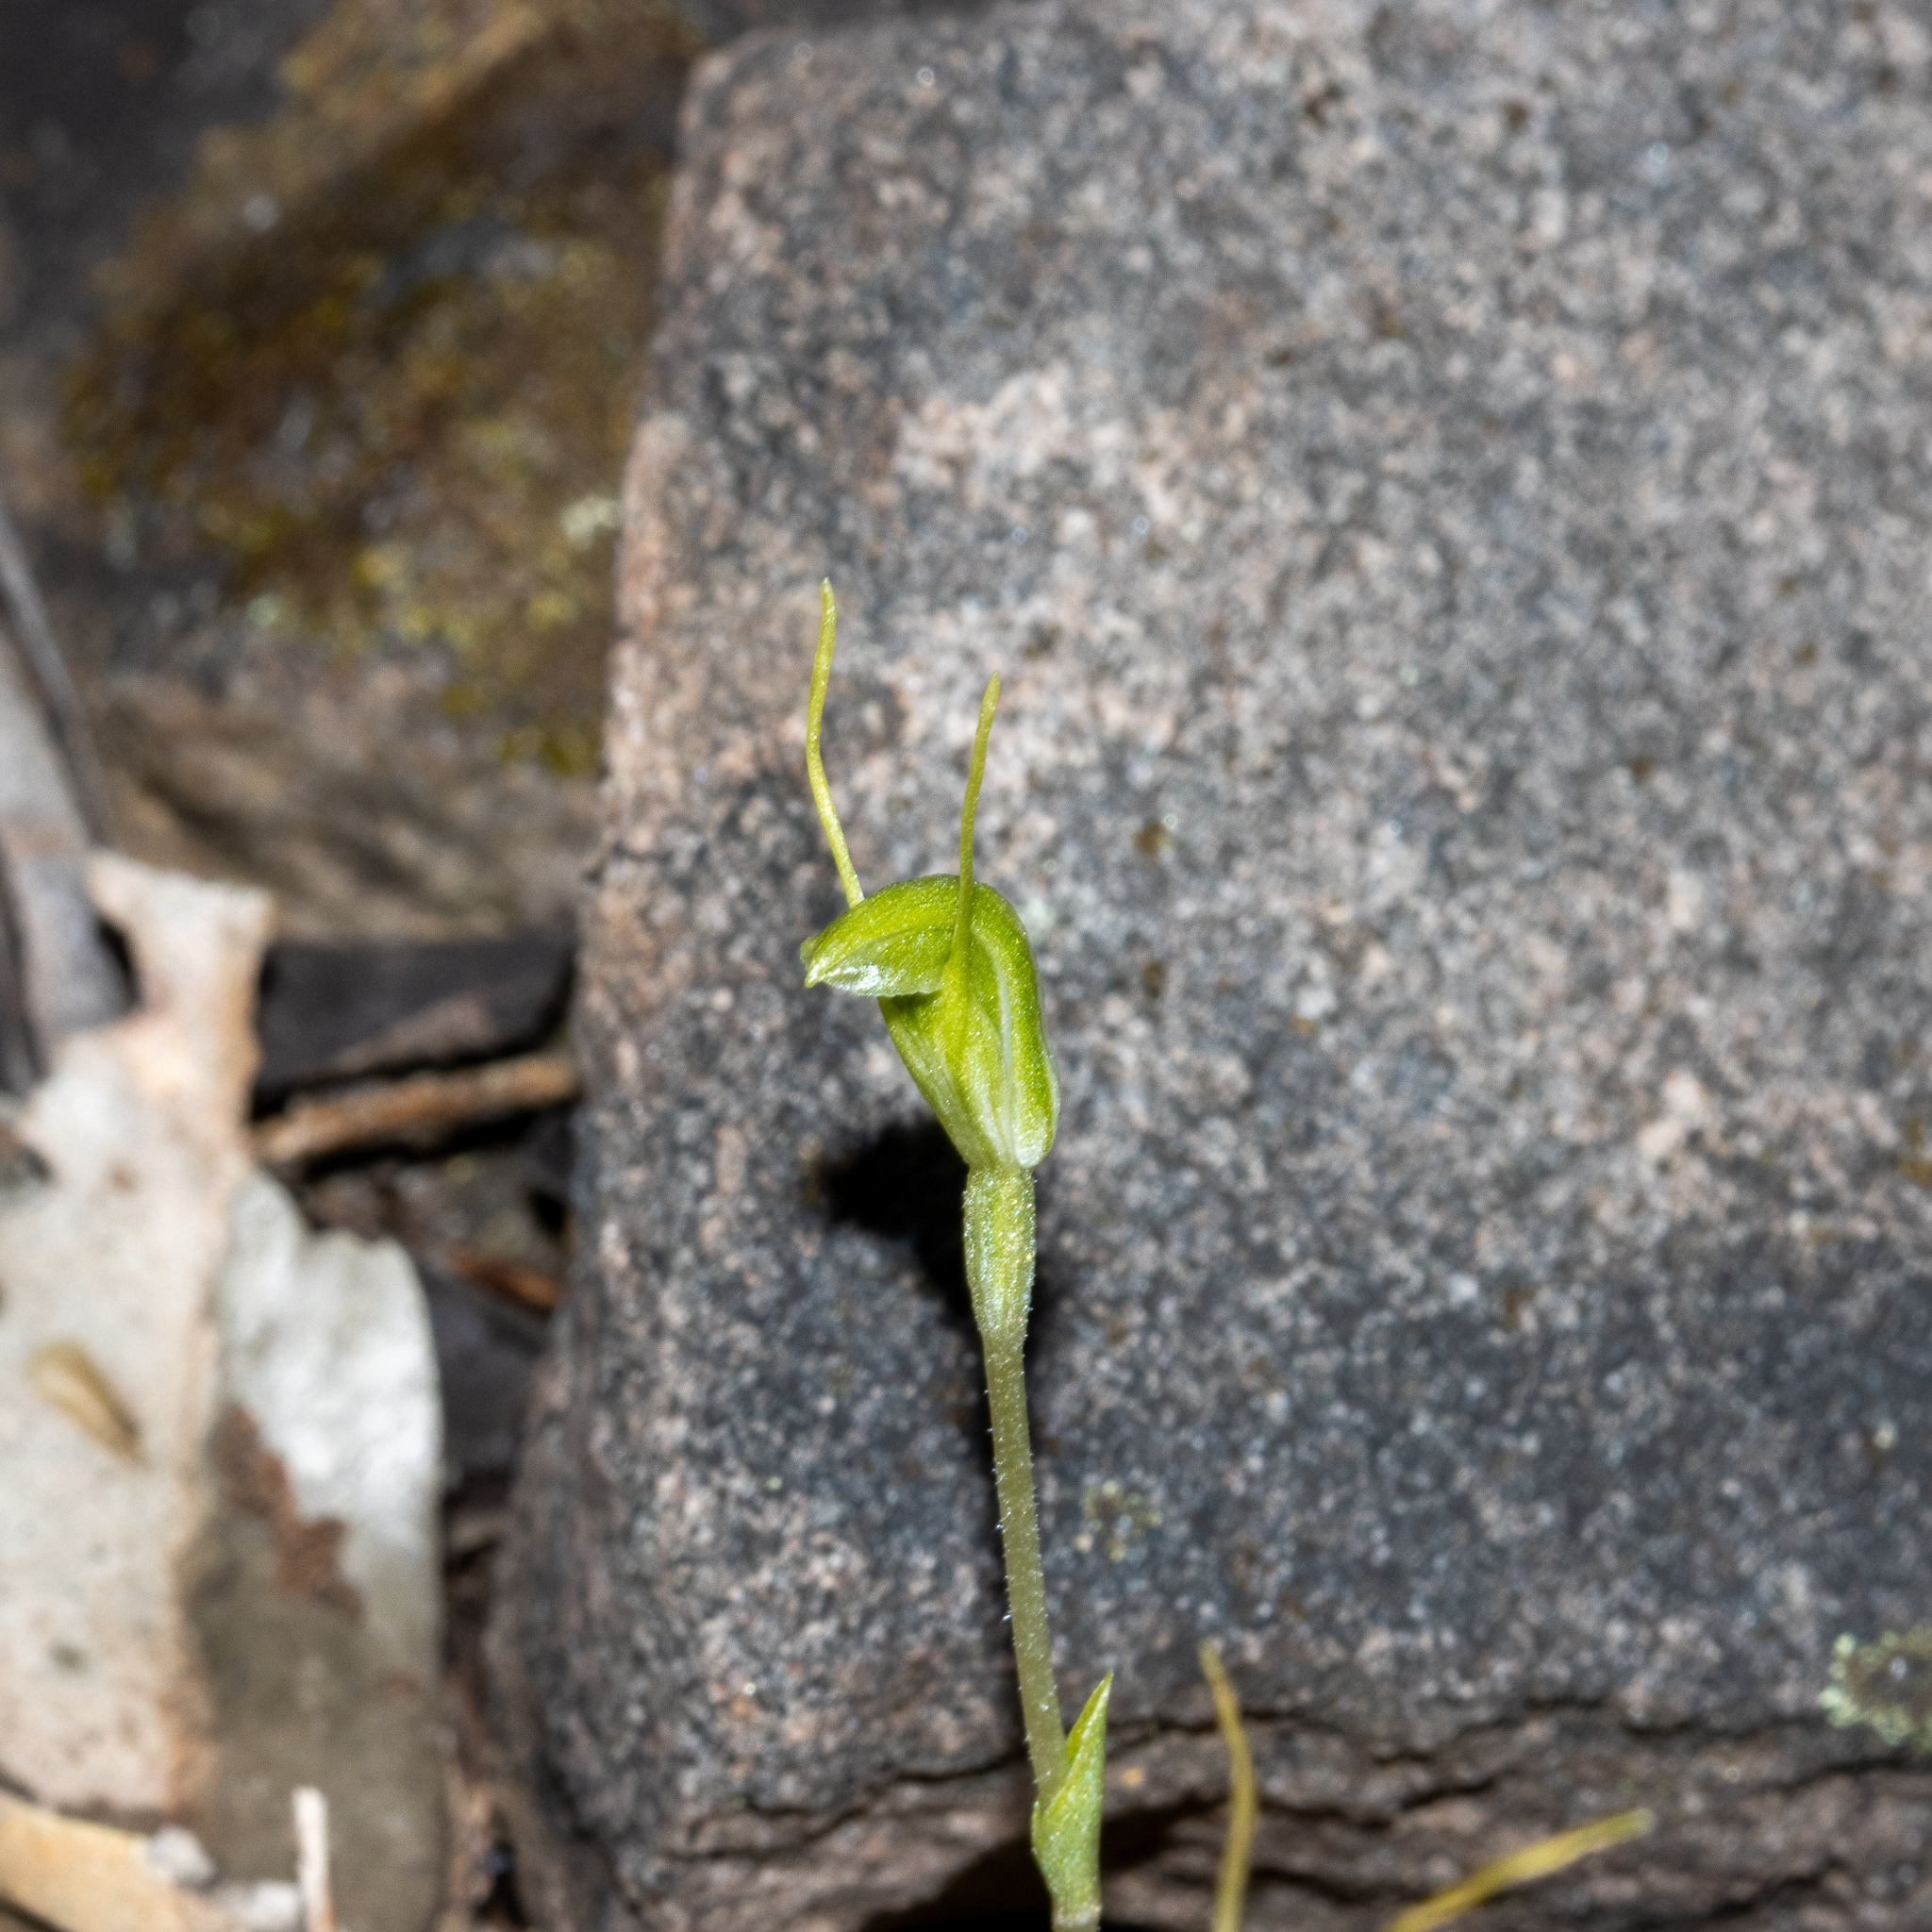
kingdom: Plantae
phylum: Tracheophyta
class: Liliopsida
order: Asparagales
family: Orchidaceae
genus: Pterostylis
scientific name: Pterostylis nana
